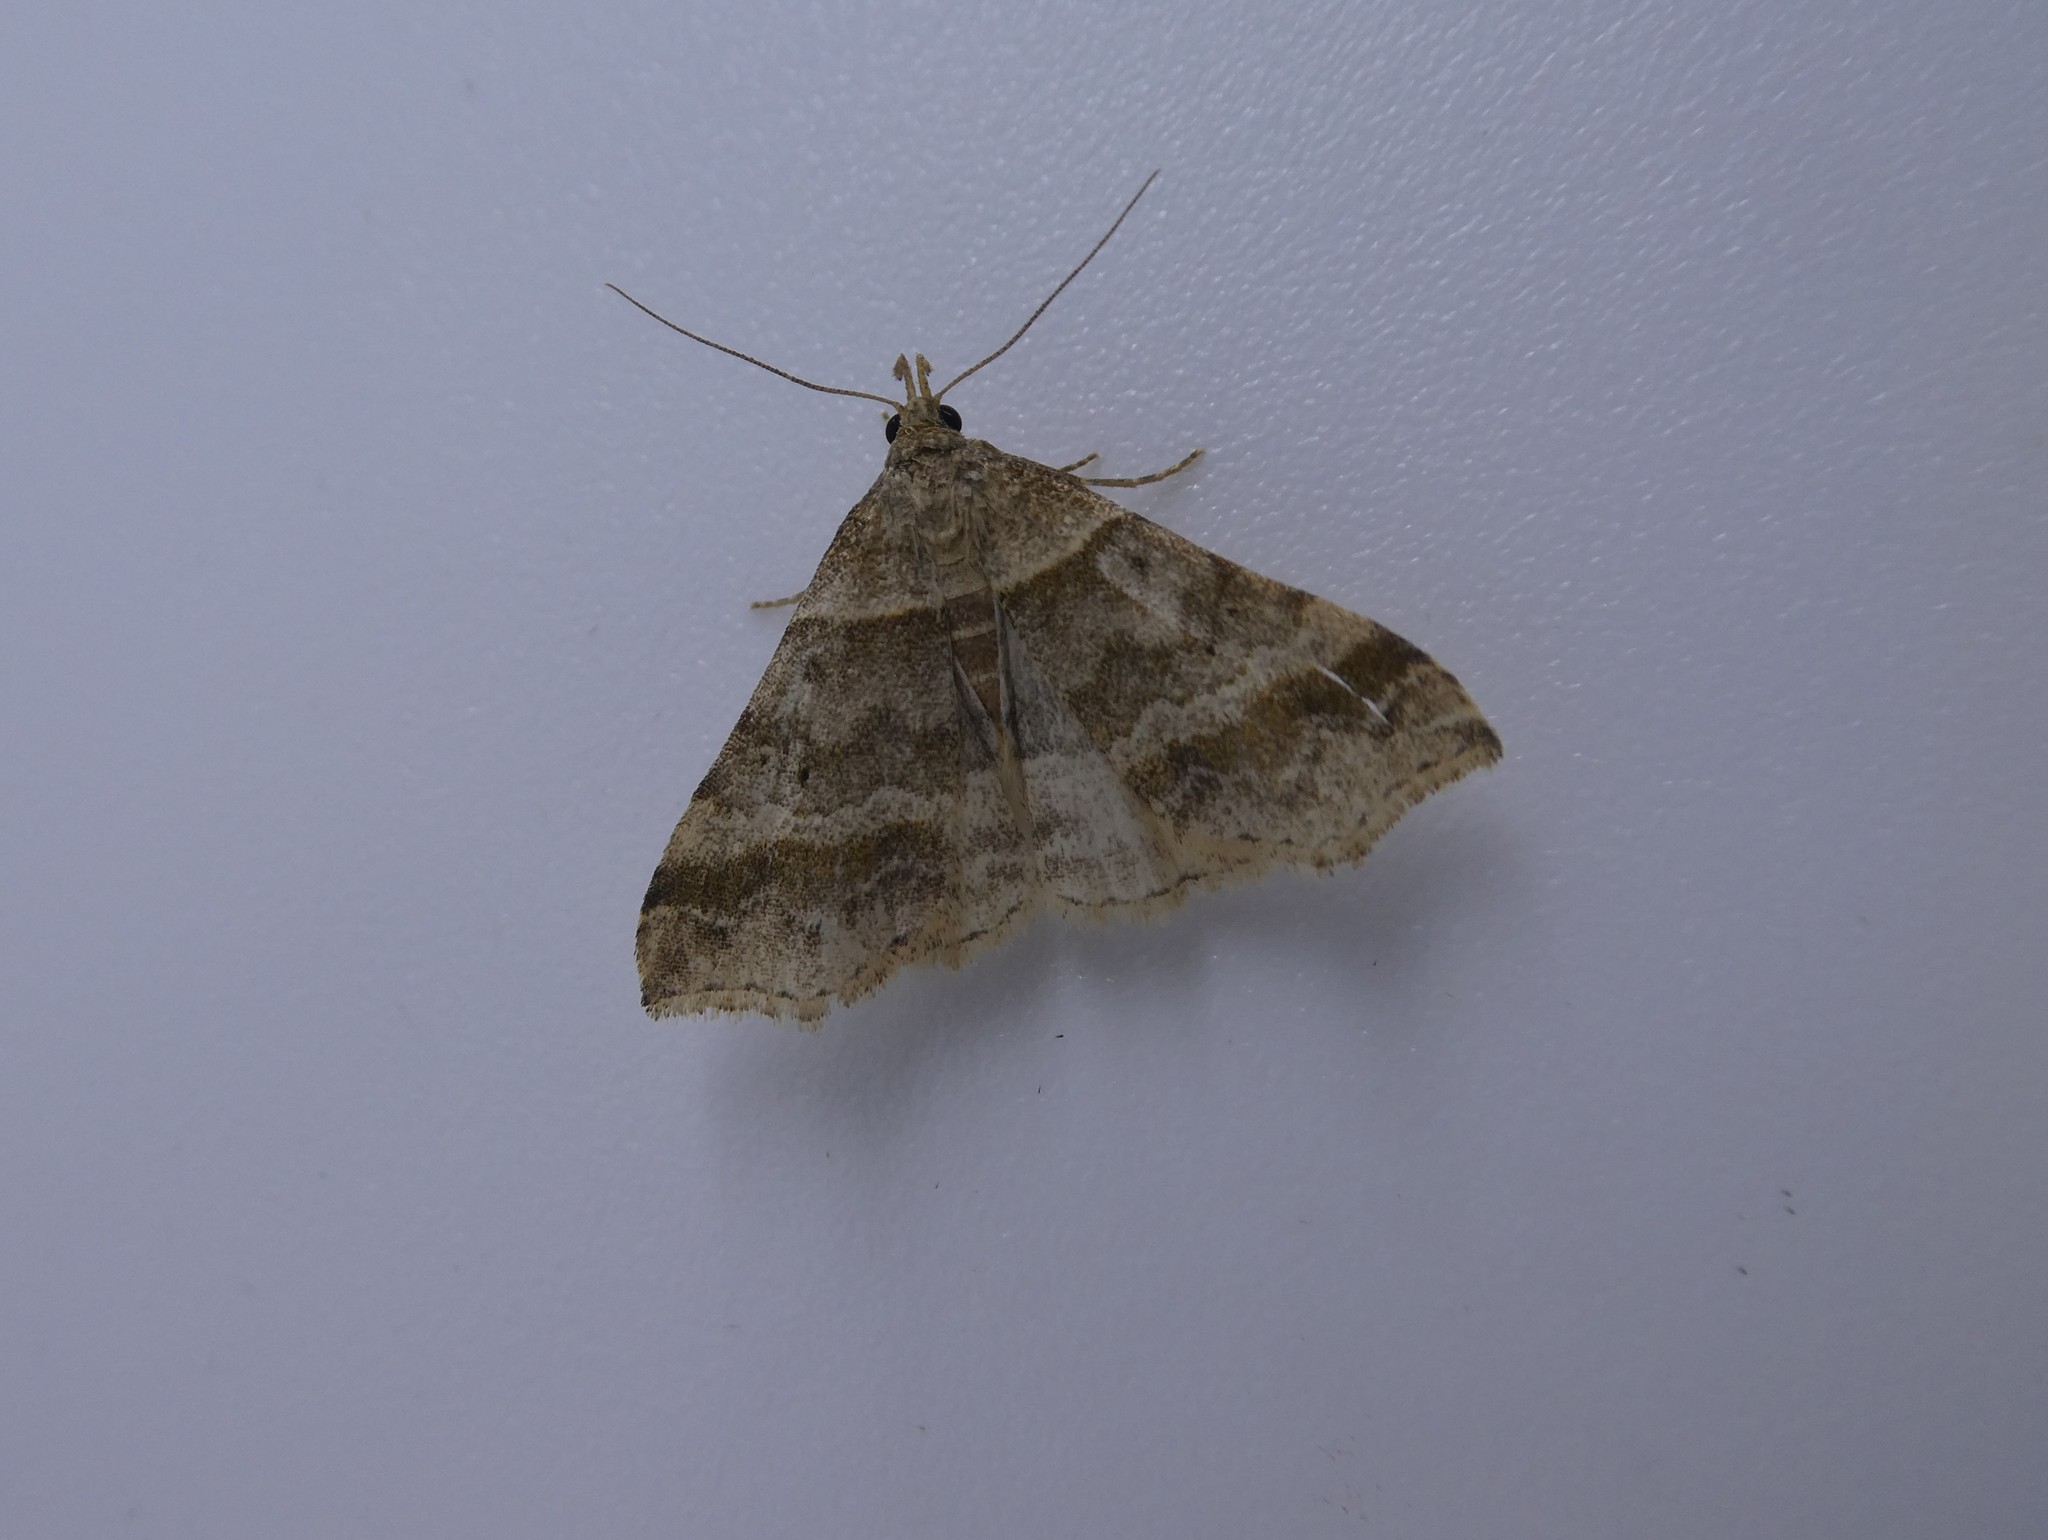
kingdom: Animalia
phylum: Arthropoda
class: Insecta
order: Lepidoptera
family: Erebidae
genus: Phaeolita
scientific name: Phaeolita pyramusalis
